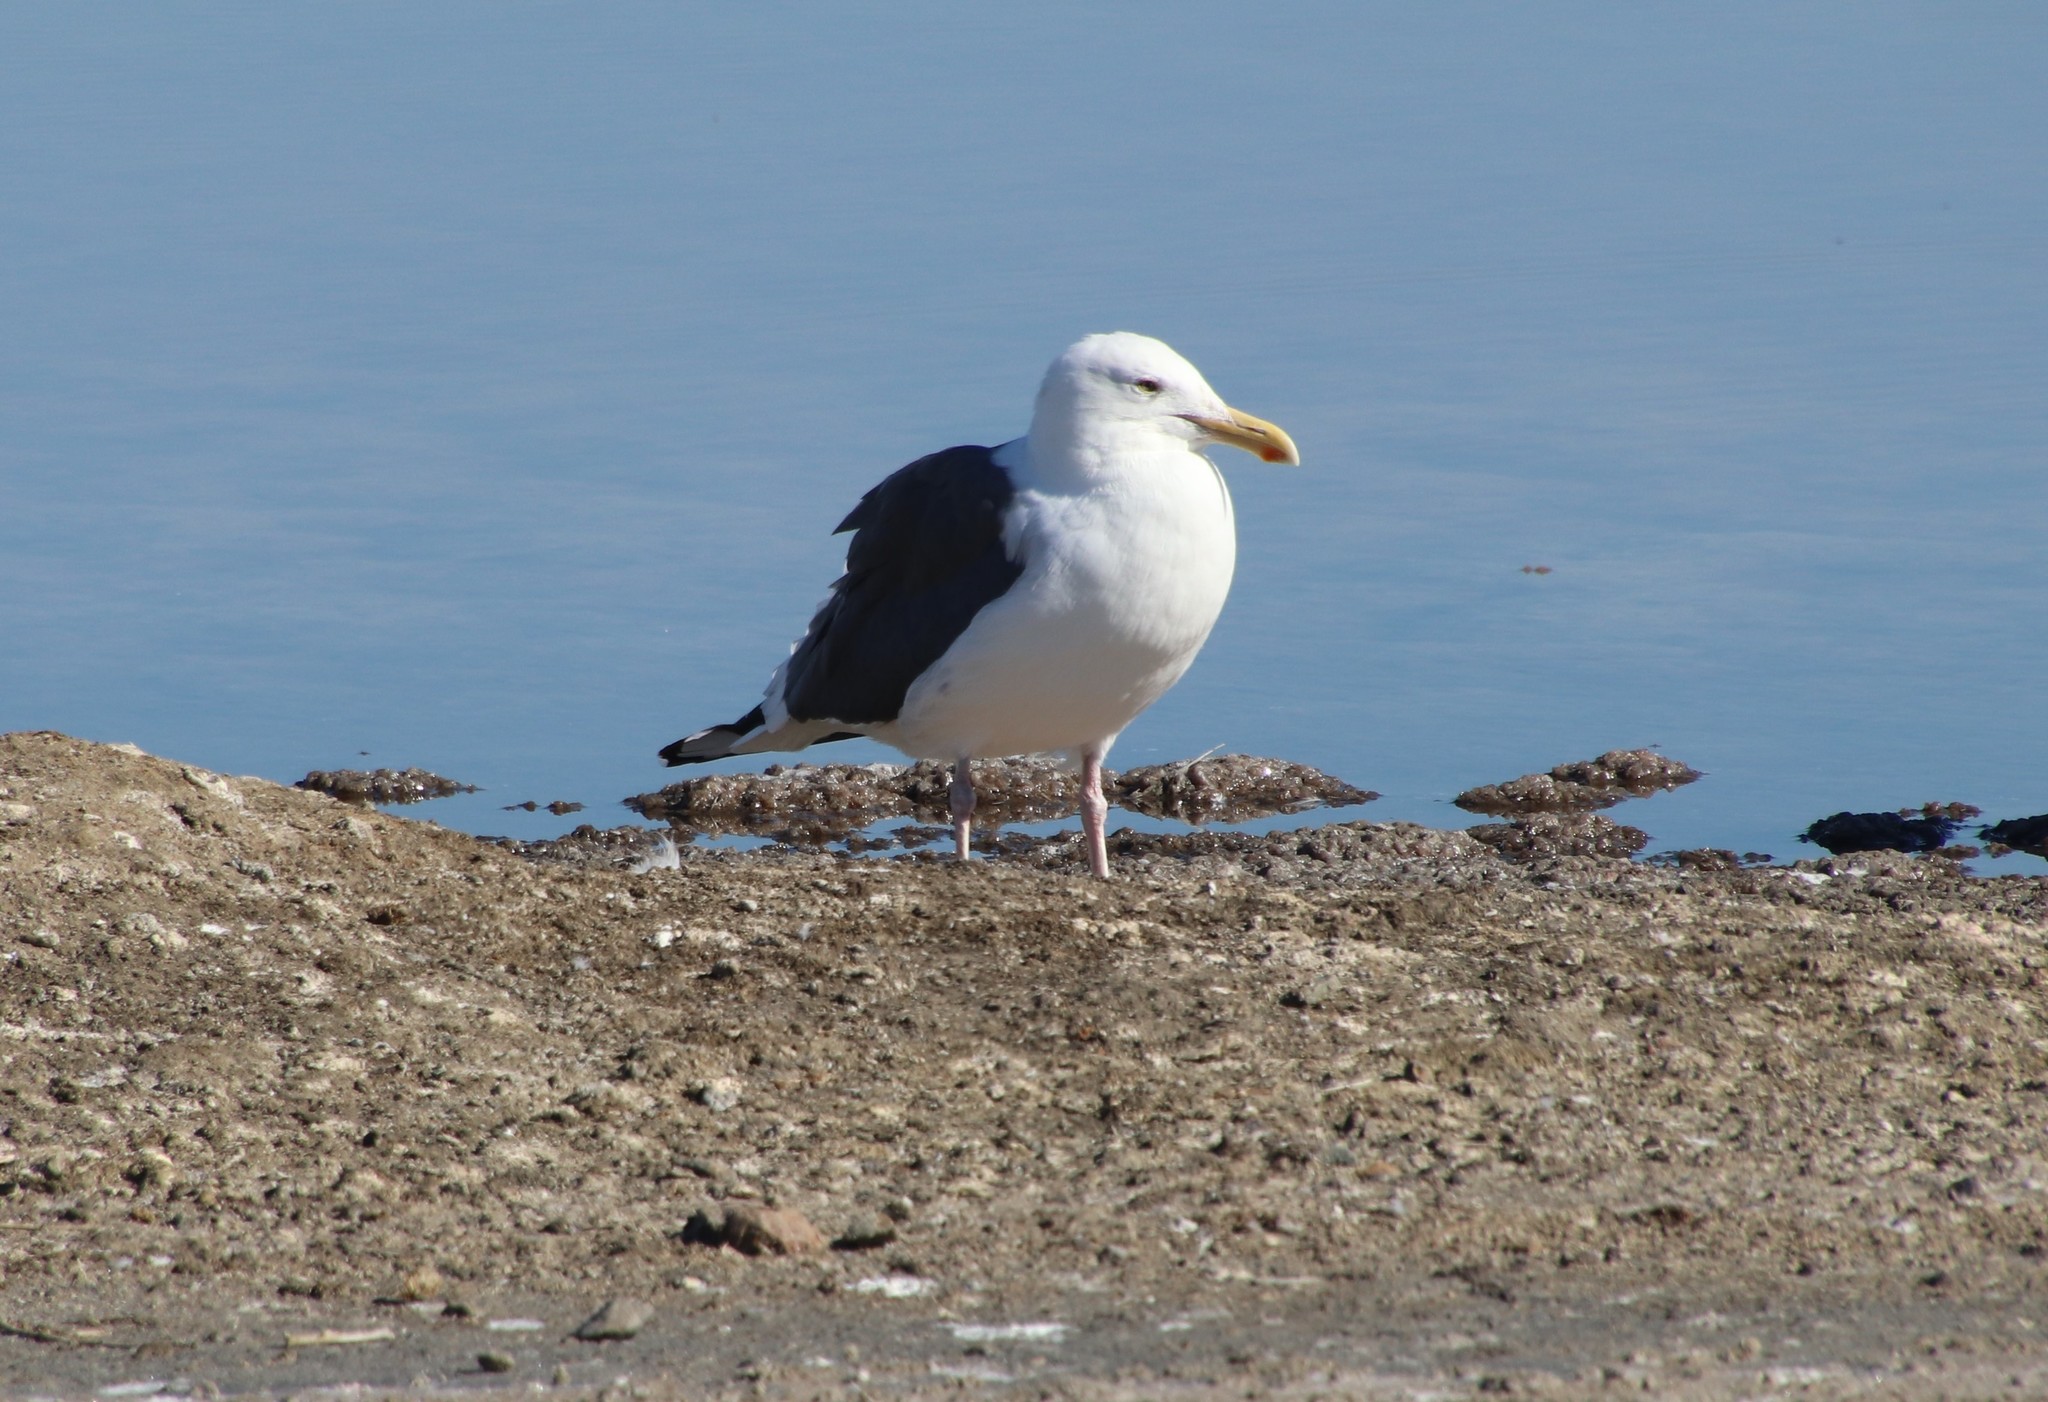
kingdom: Animalia
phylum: Chordata
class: Aves
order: Charadriiformes
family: Laridae
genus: Larus
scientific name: Larus occidentalis
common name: Western gull
